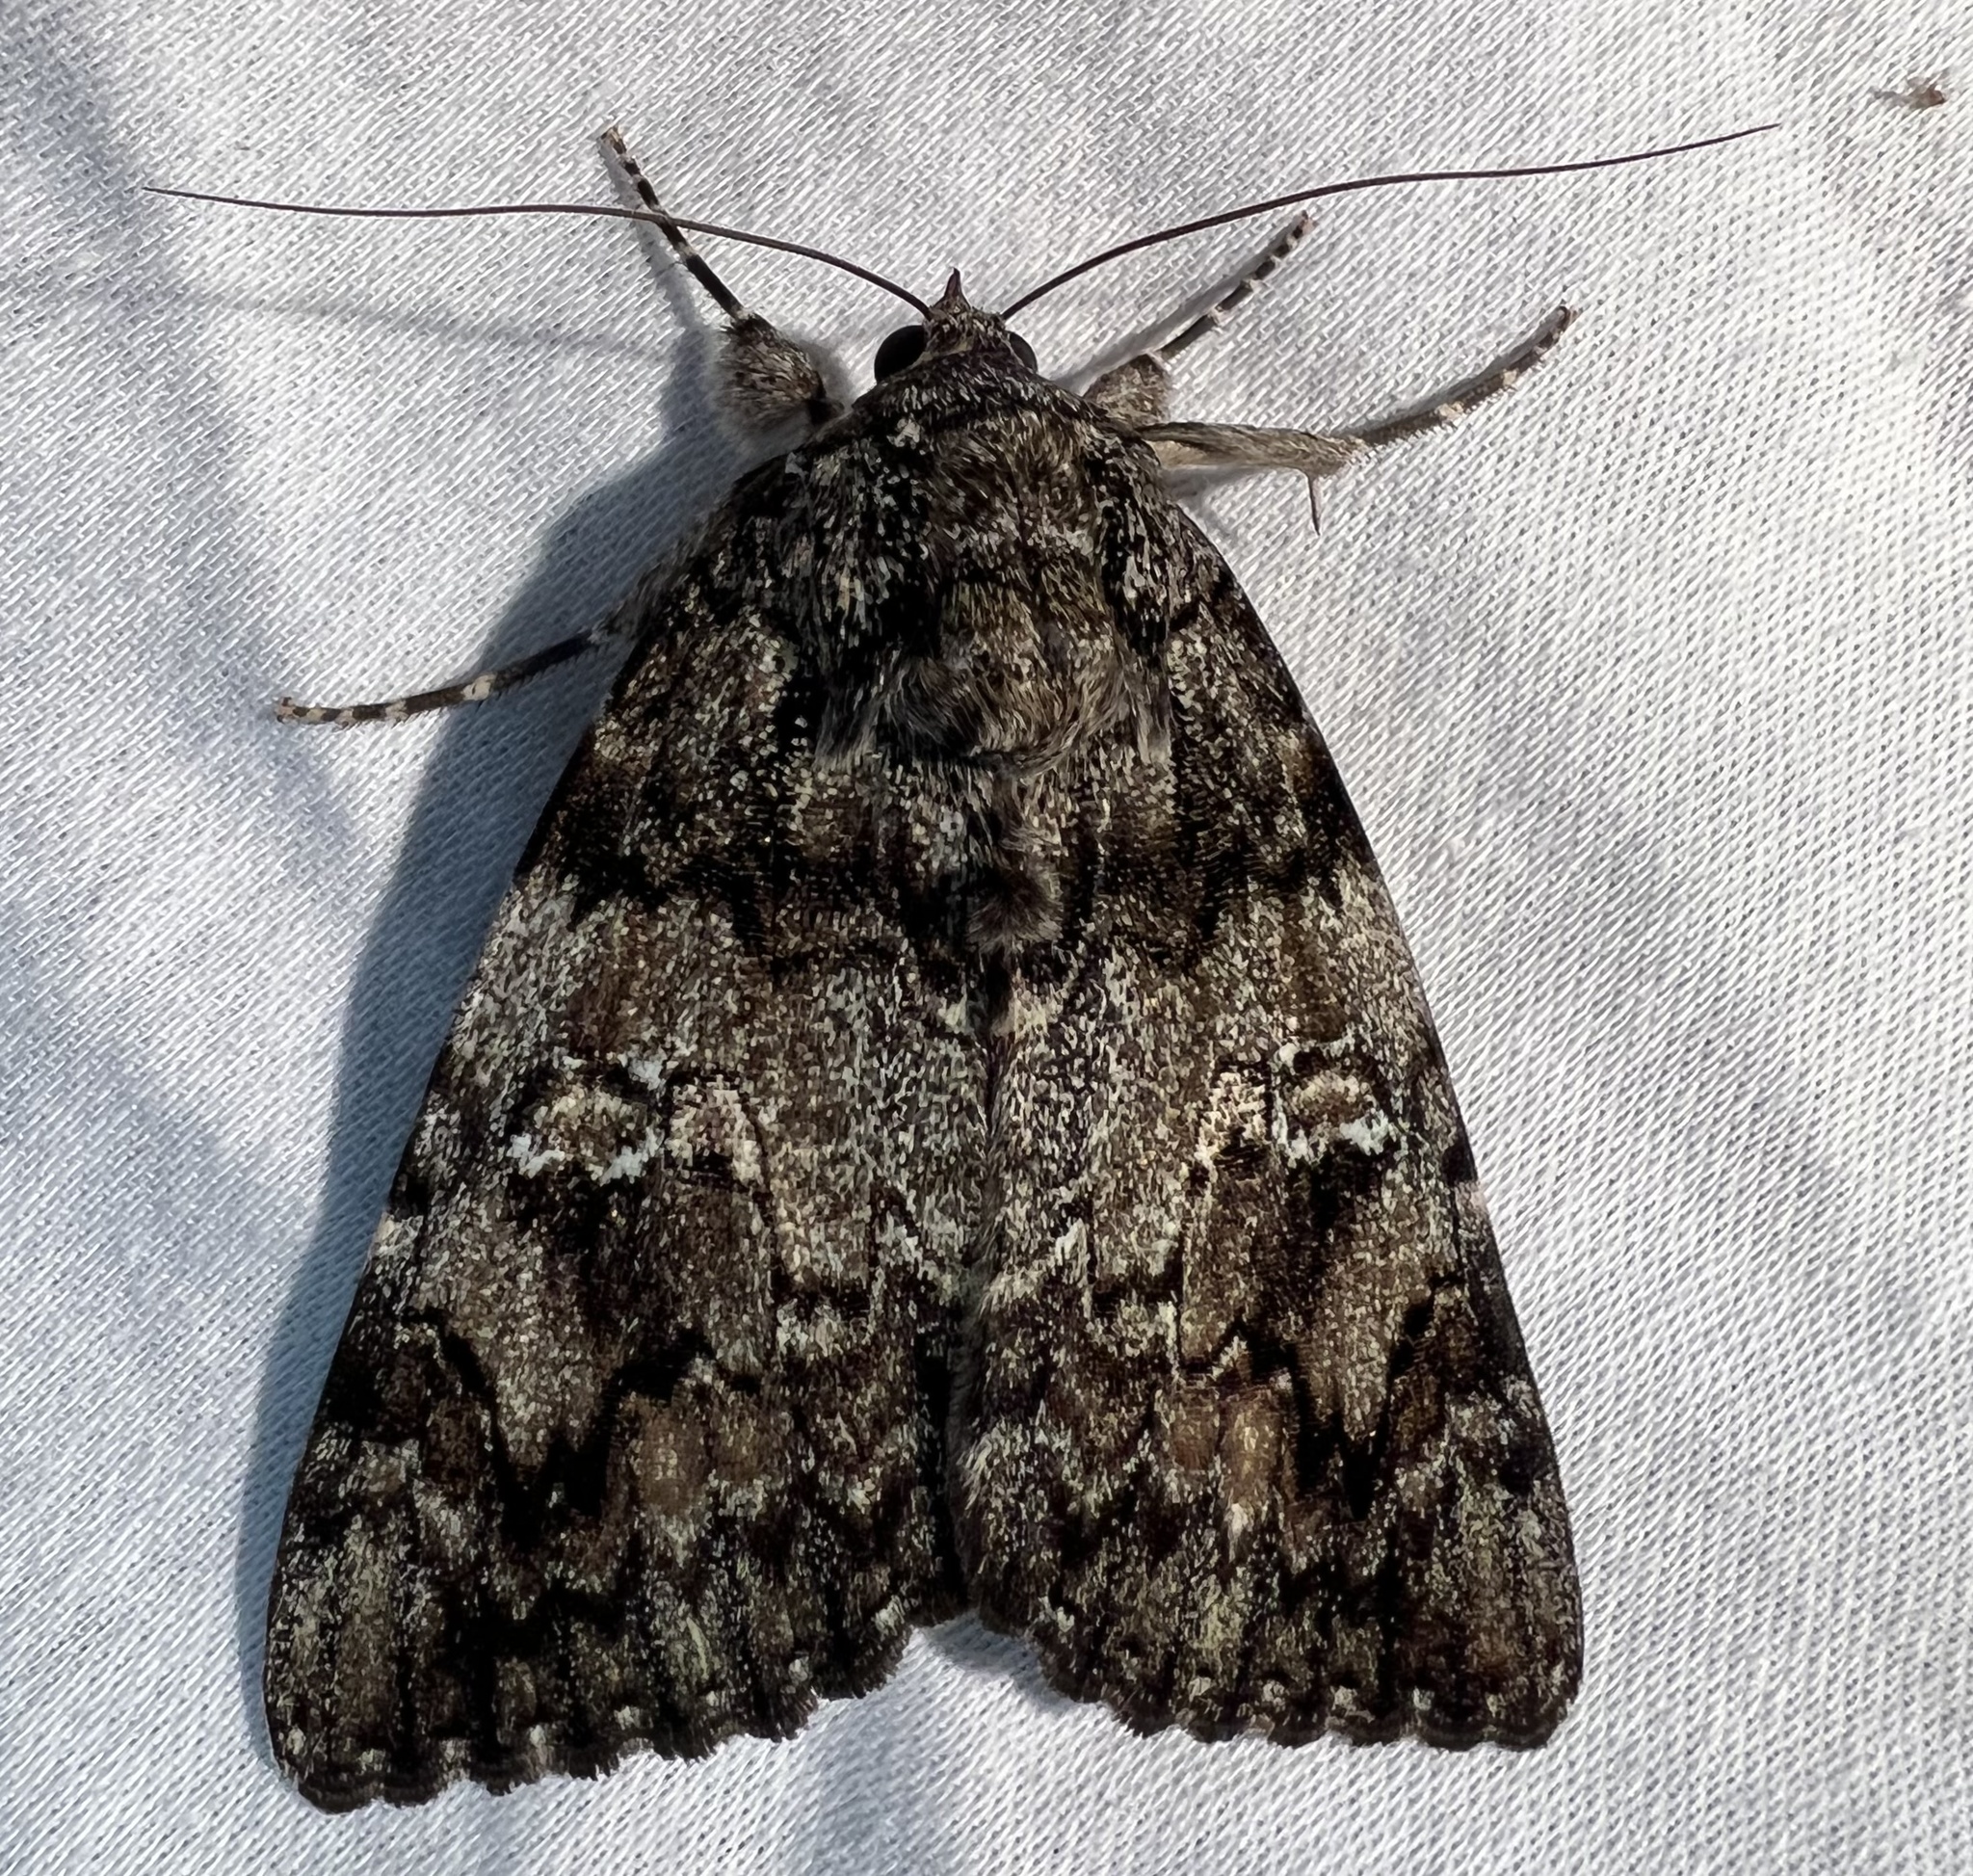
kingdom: Animalia
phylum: Arthropoda
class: Insecta
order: Lepidoptera
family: Erebidae
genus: Catocala
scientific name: Catocala ilia
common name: Ilia underwing
